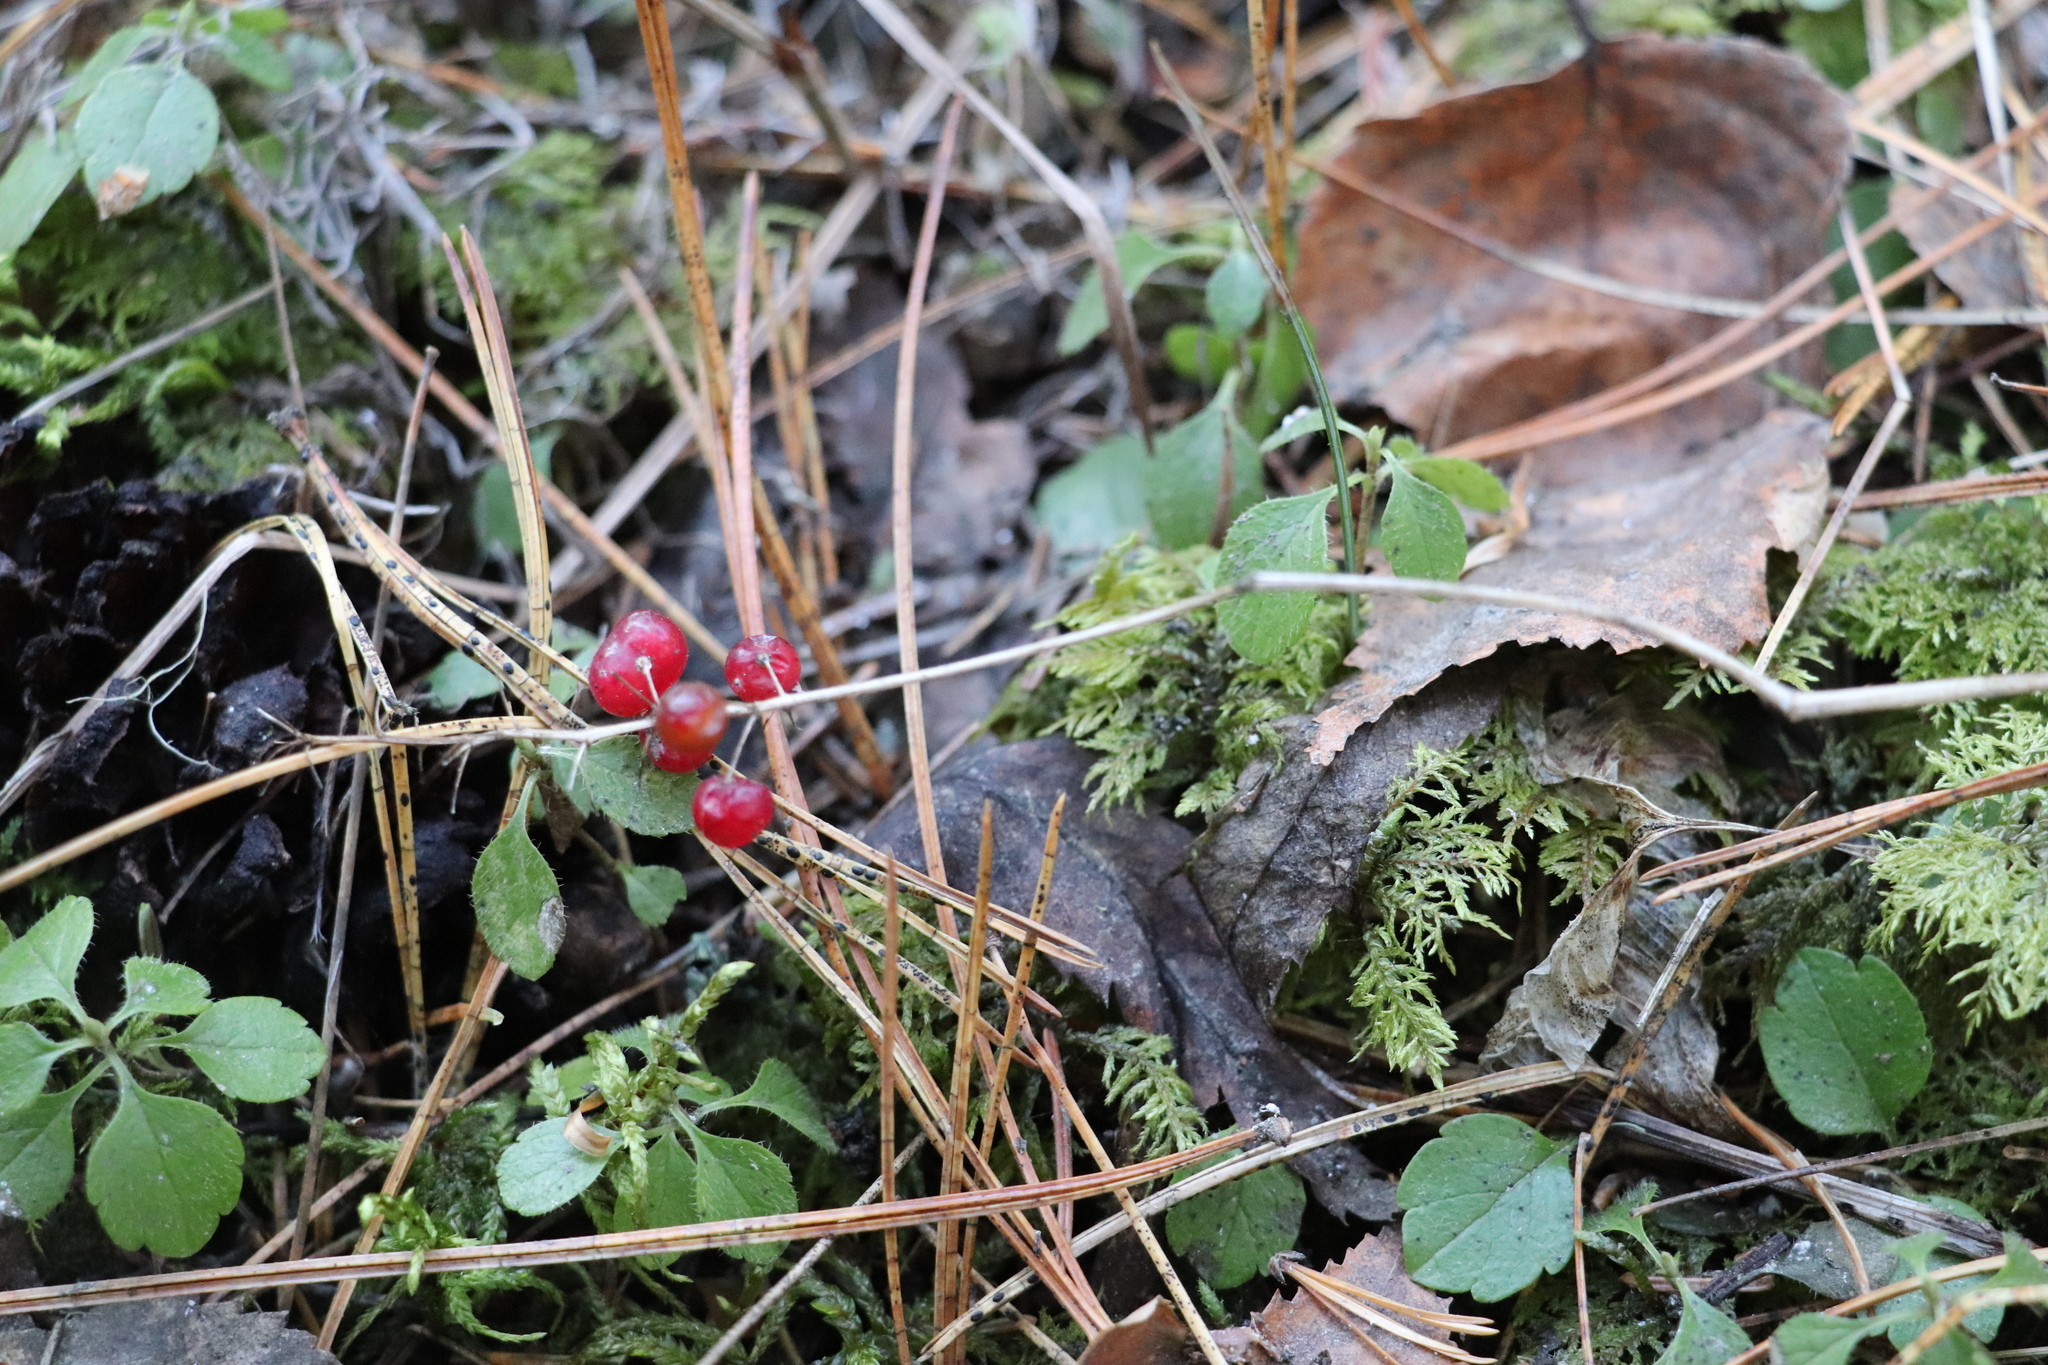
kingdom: Plantae
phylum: Tracheophyta
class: Liliopsida
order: Asparagales
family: Asparagaceae
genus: Maianthemum
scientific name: Maianthemum bifolium
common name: May lily
